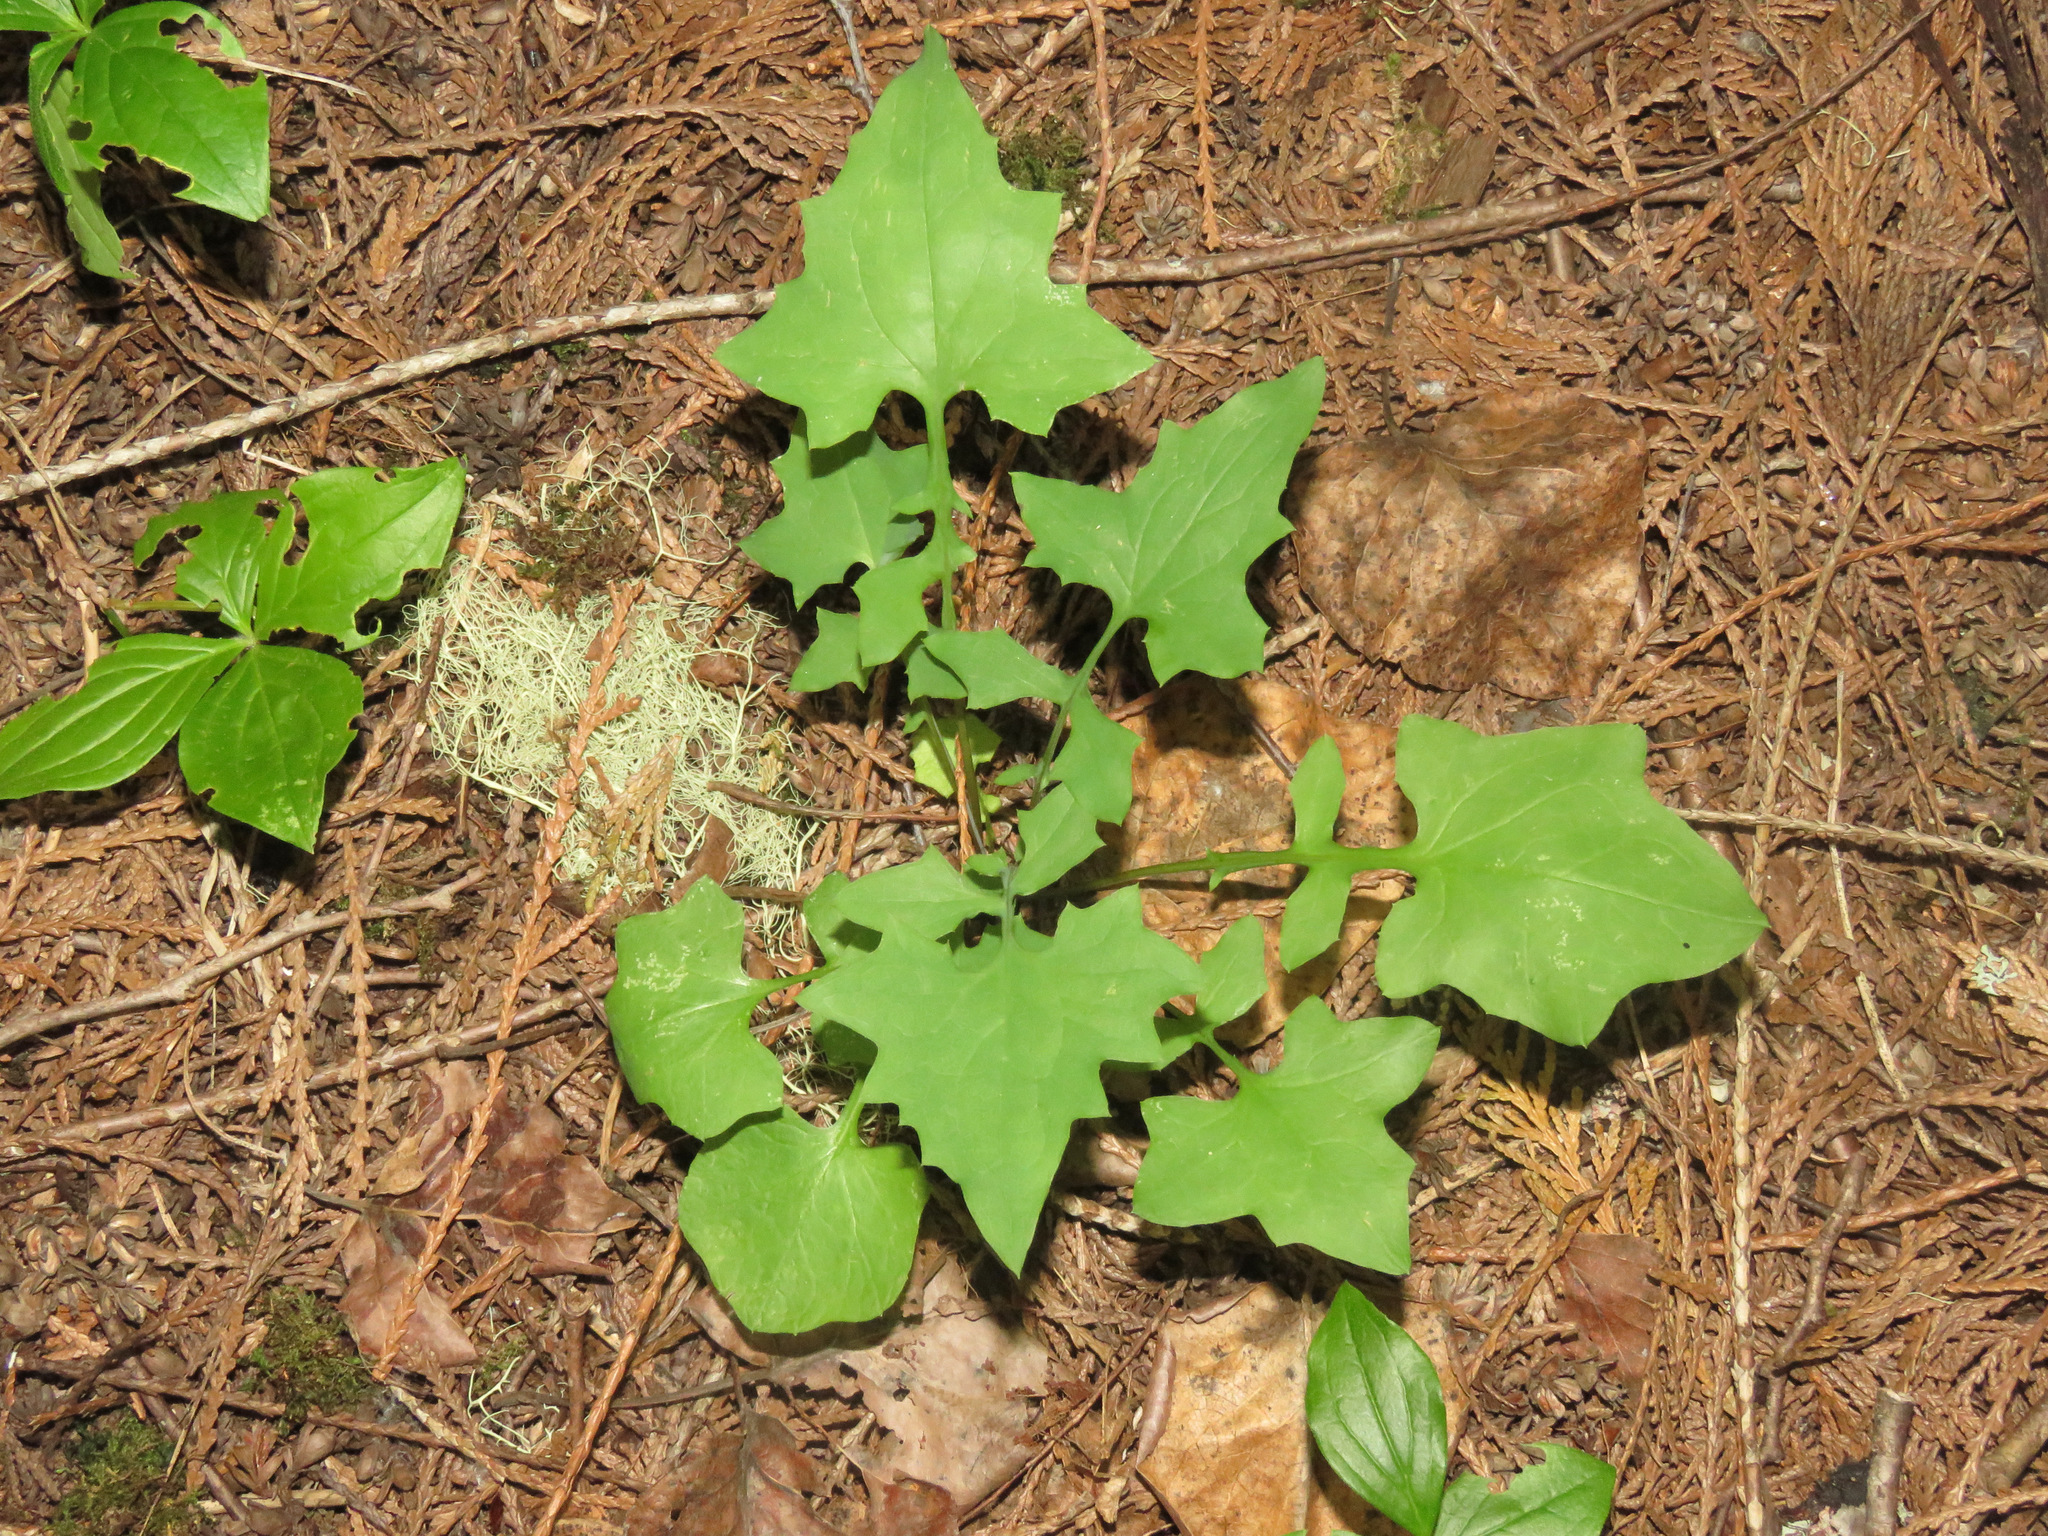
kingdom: Plantae
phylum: Tracheophyta
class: Magnoliopsida
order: Asterales
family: Asteraceae
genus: Mycelis
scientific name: Mycelis muralis
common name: Wall lettuce
